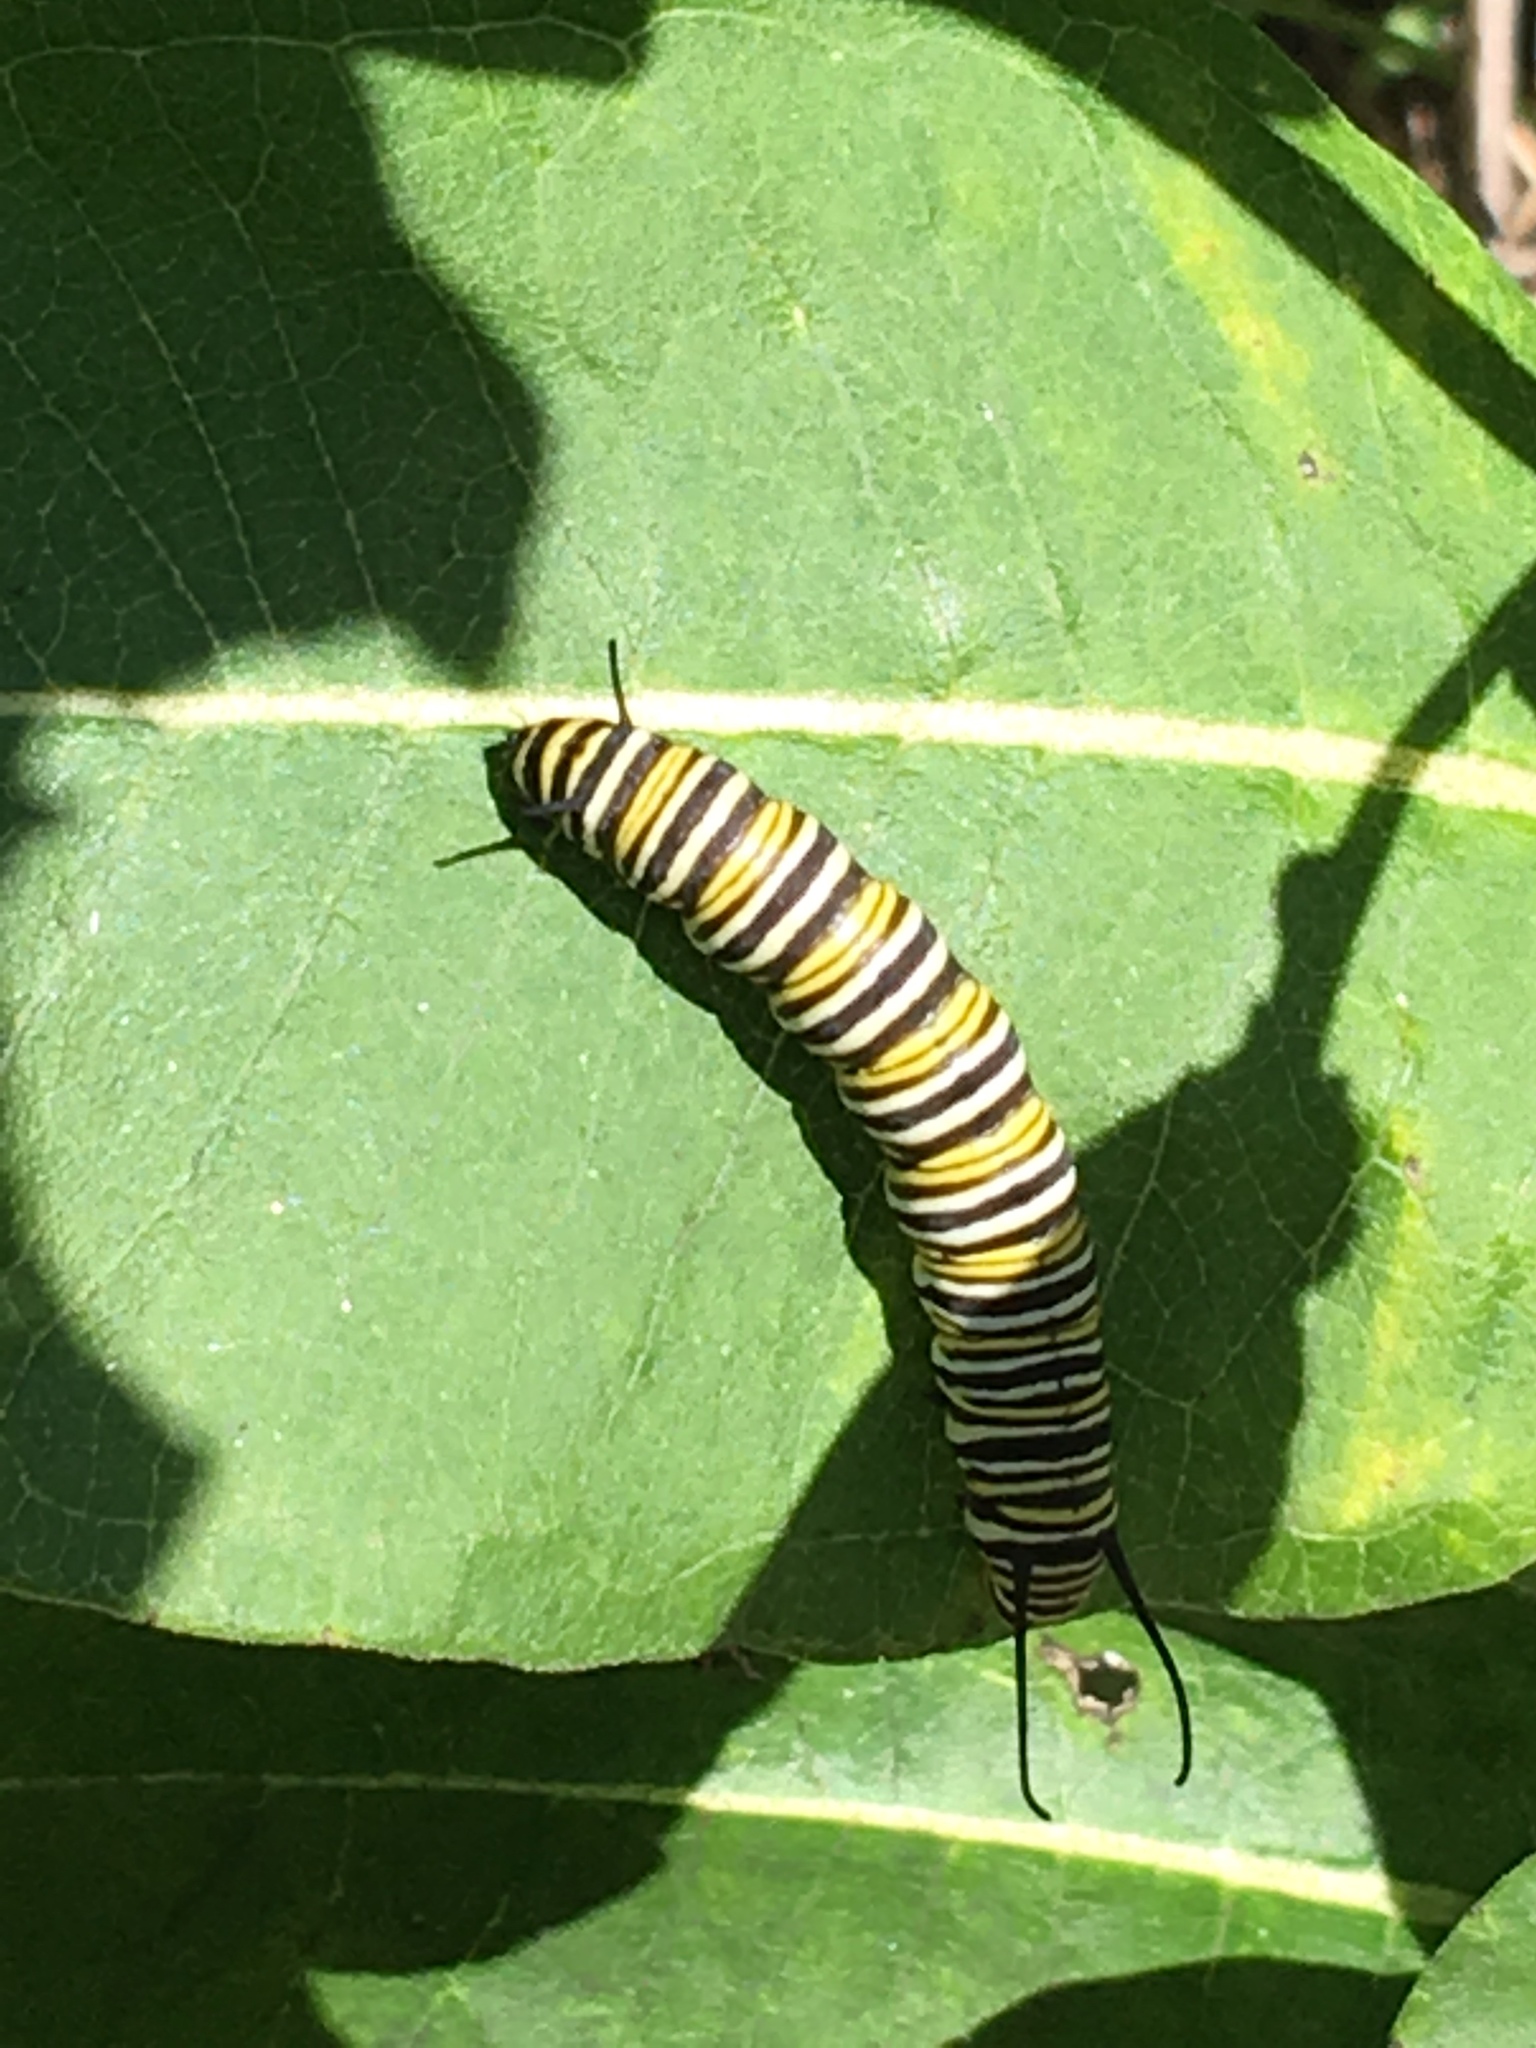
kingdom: Animalia
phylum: Arthropoda
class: Insecta
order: Lepidoptera
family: Nymphalidae
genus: Danaus
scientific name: Danaus plexippus
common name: Monarch
